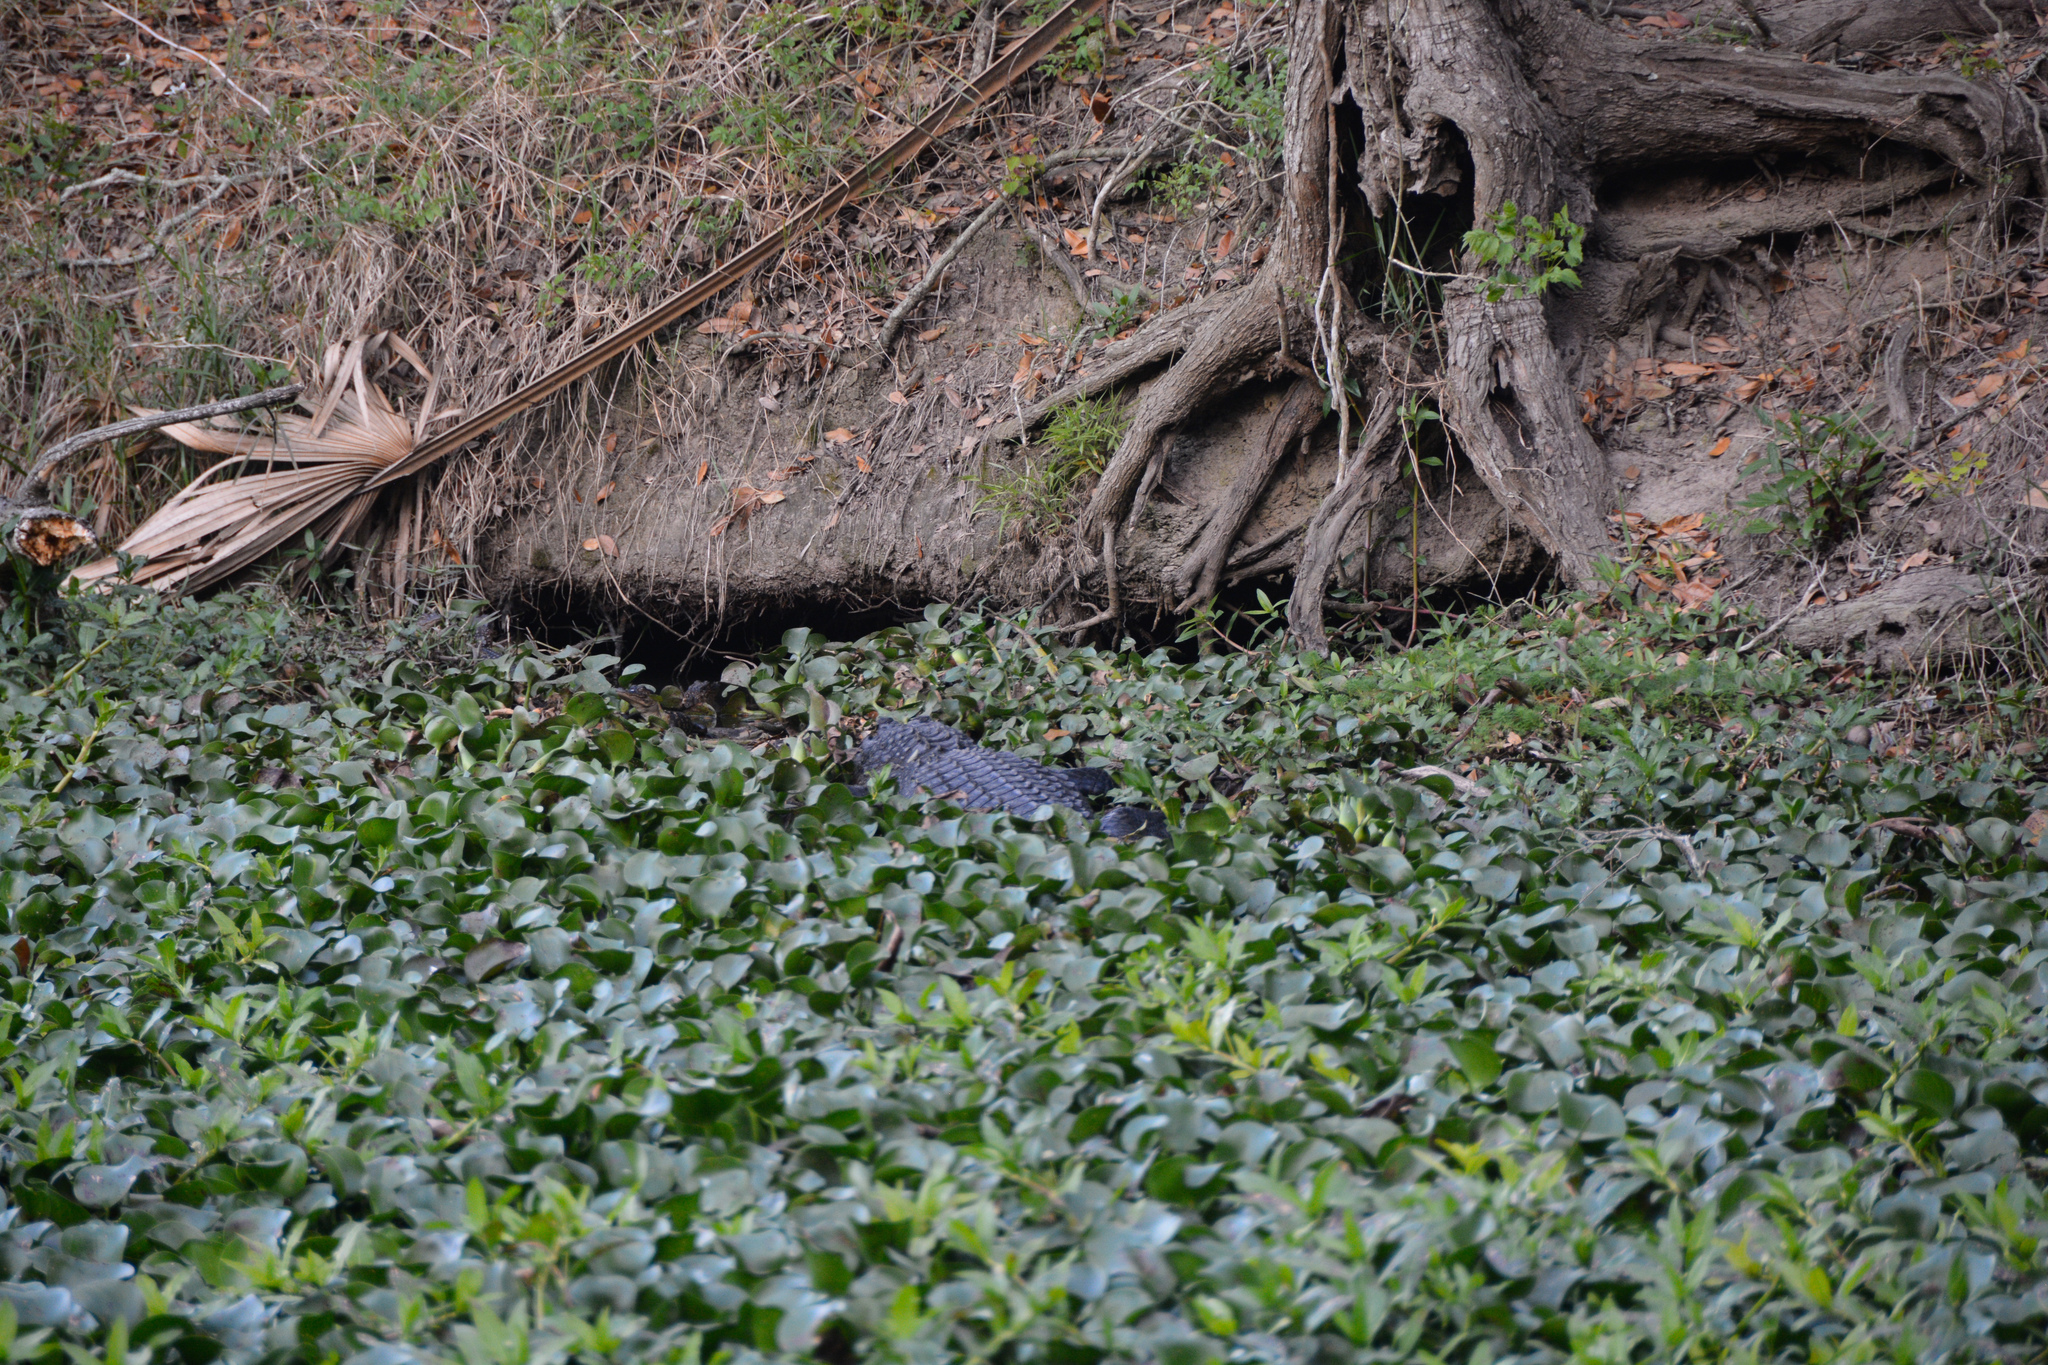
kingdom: Animalia
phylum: Chordata
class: Crocodylia
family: Alligatoridae
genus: Alligator
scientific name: Alligator mississippiensis
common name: American alligator
